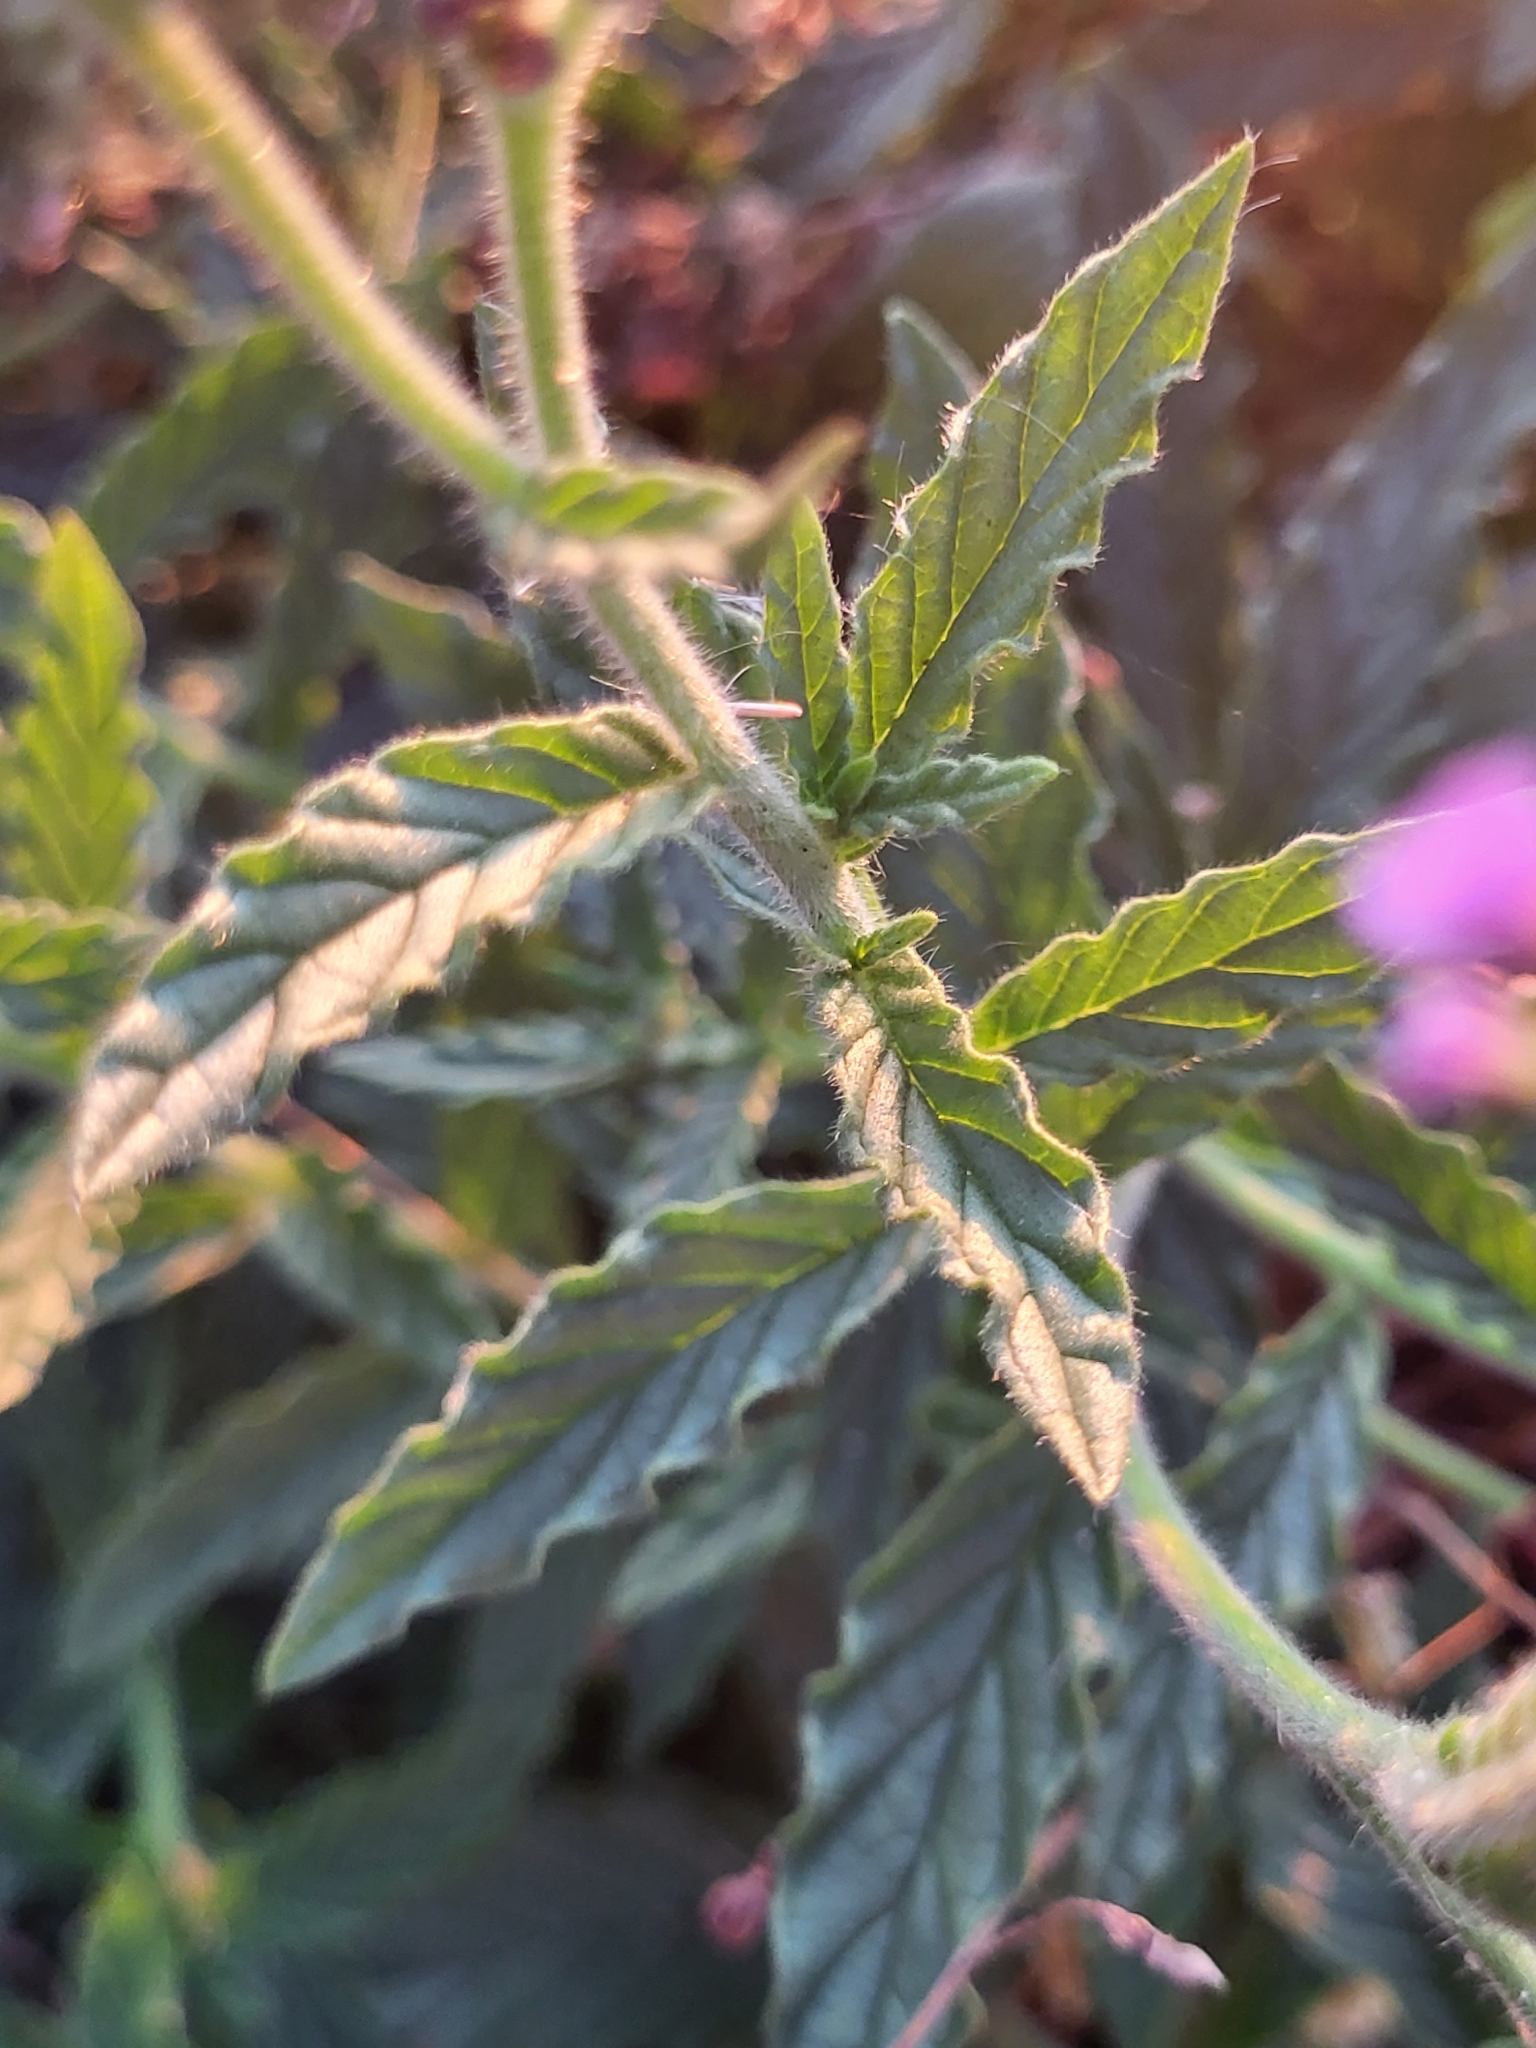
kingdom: Plantae
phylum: Tracheophyta
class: Magnoliopsida
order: Boraginales
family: Heliotropiaceae
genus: Heliotropium
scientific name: Heliotropium amplexicaule
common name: Clasping heliotrope
